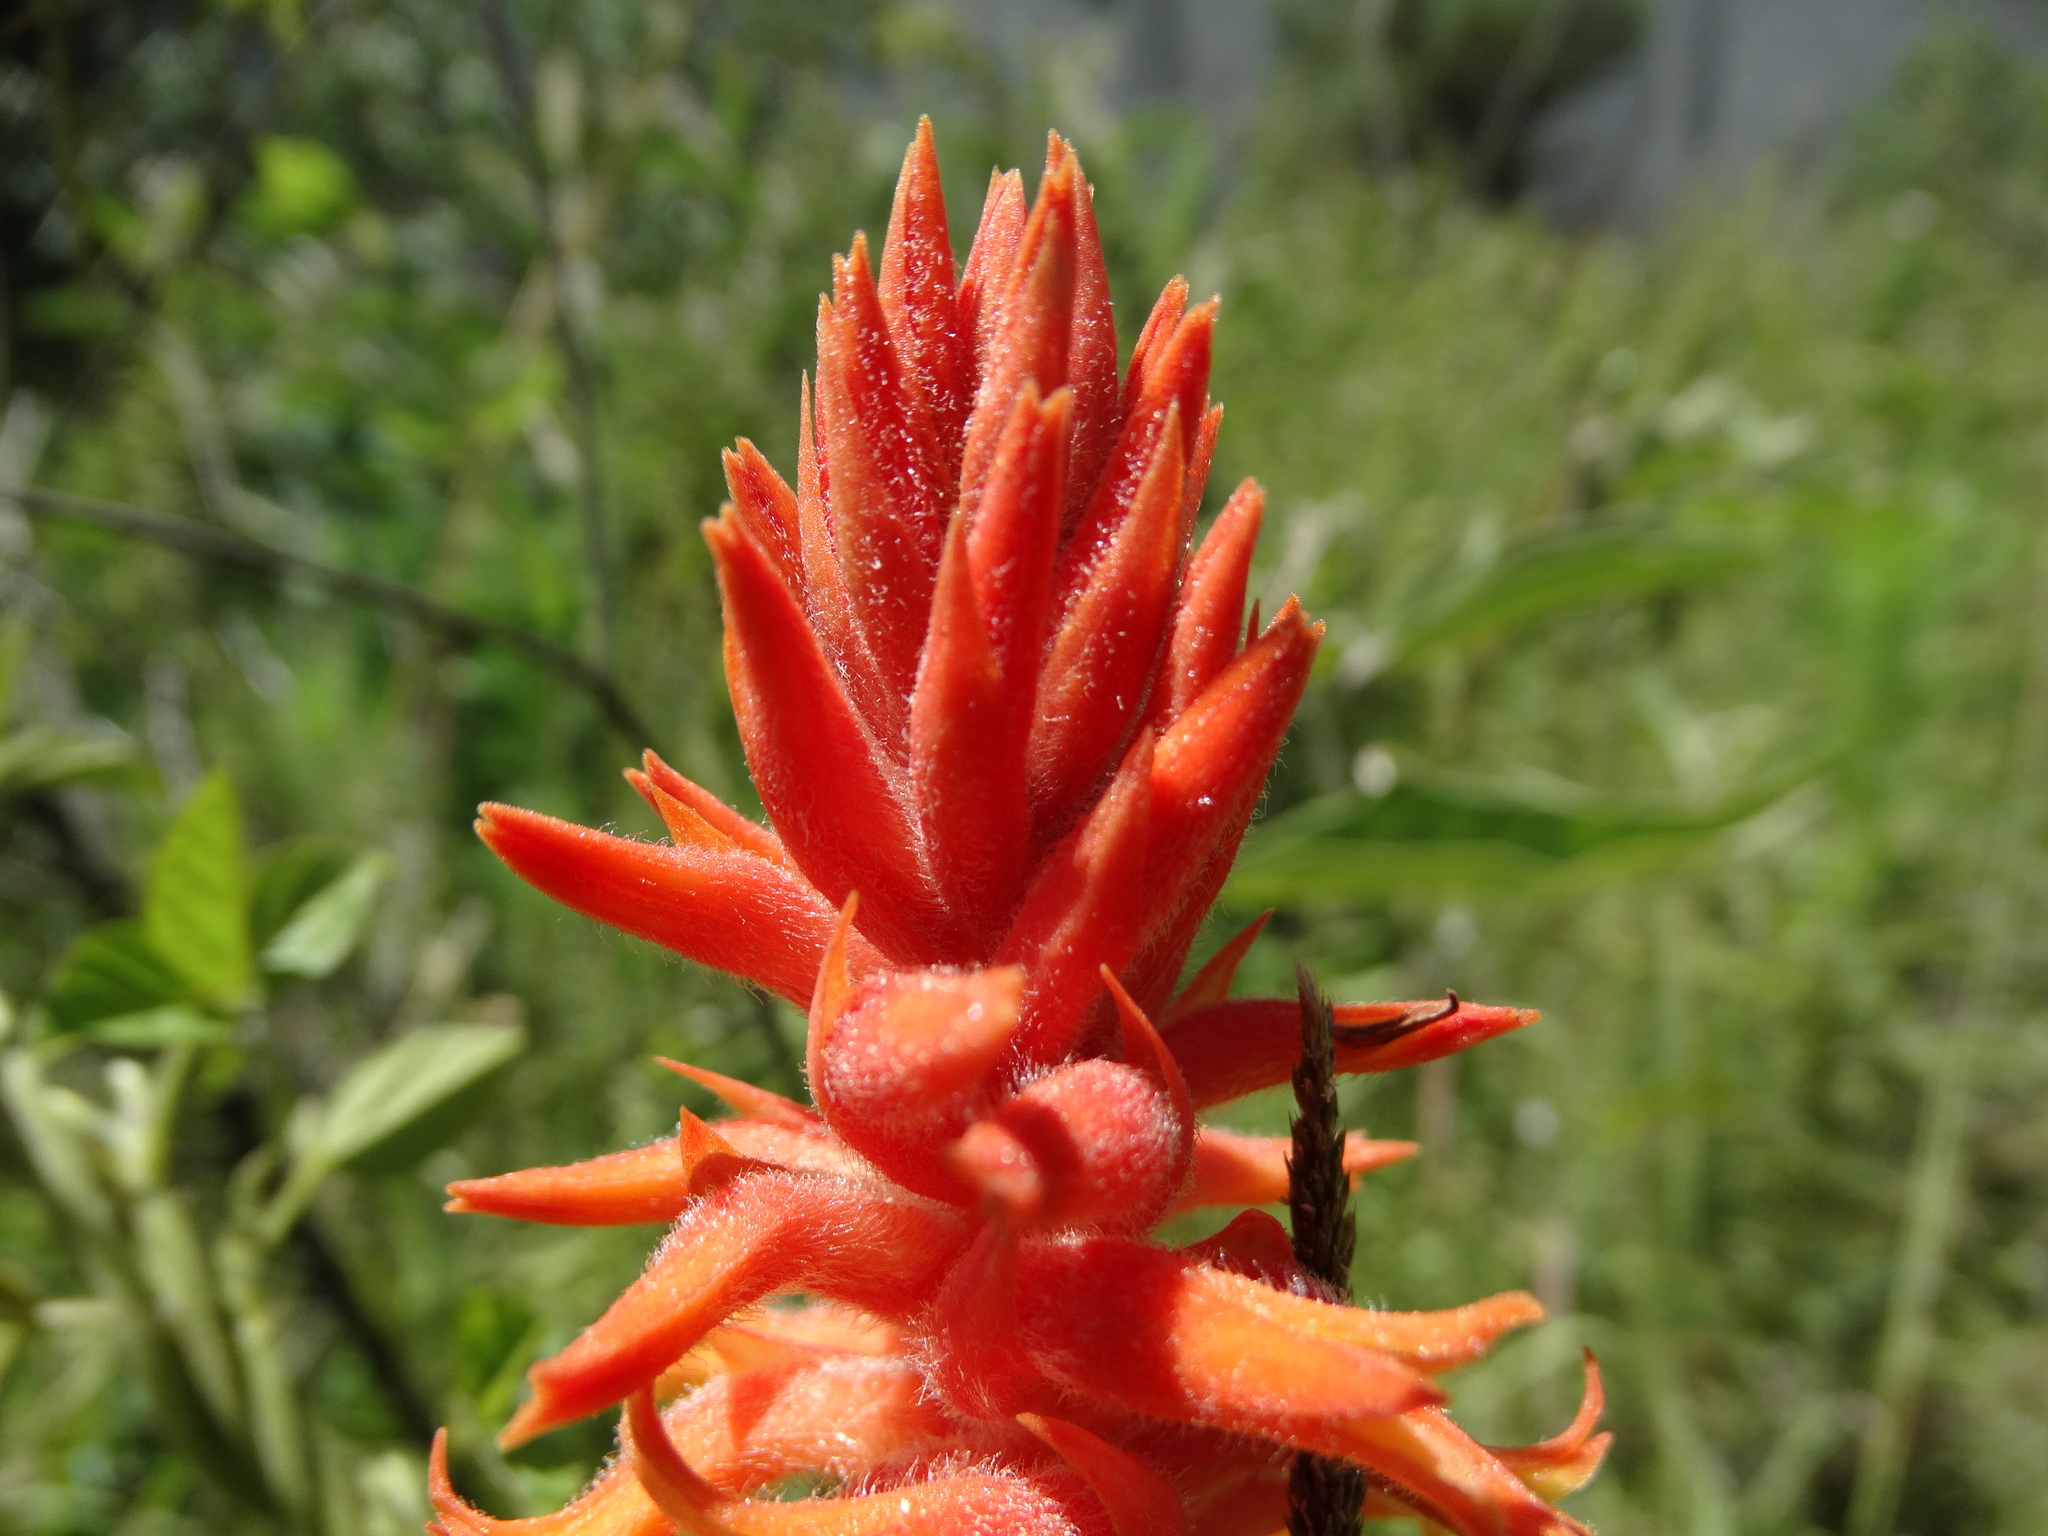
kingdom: Plantae
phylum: Tracheophyta
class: Liliopsida
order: Asparagales
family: Orchidaceae
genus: Dichromanthus
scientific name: Dichromanthus cinnabarinus
